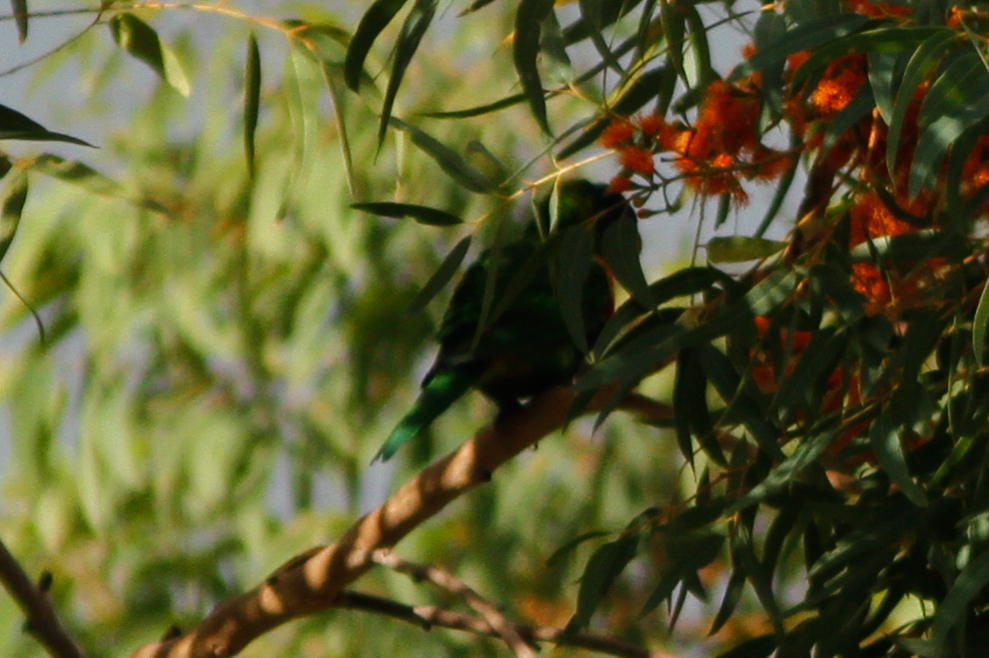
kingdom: Animalia
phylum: Chordata
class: Aves
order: Psittaciformes
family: Psittacidae
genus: Trichoglossus
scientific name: Trichoglossus haematodus
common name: Coconut lorikeet
